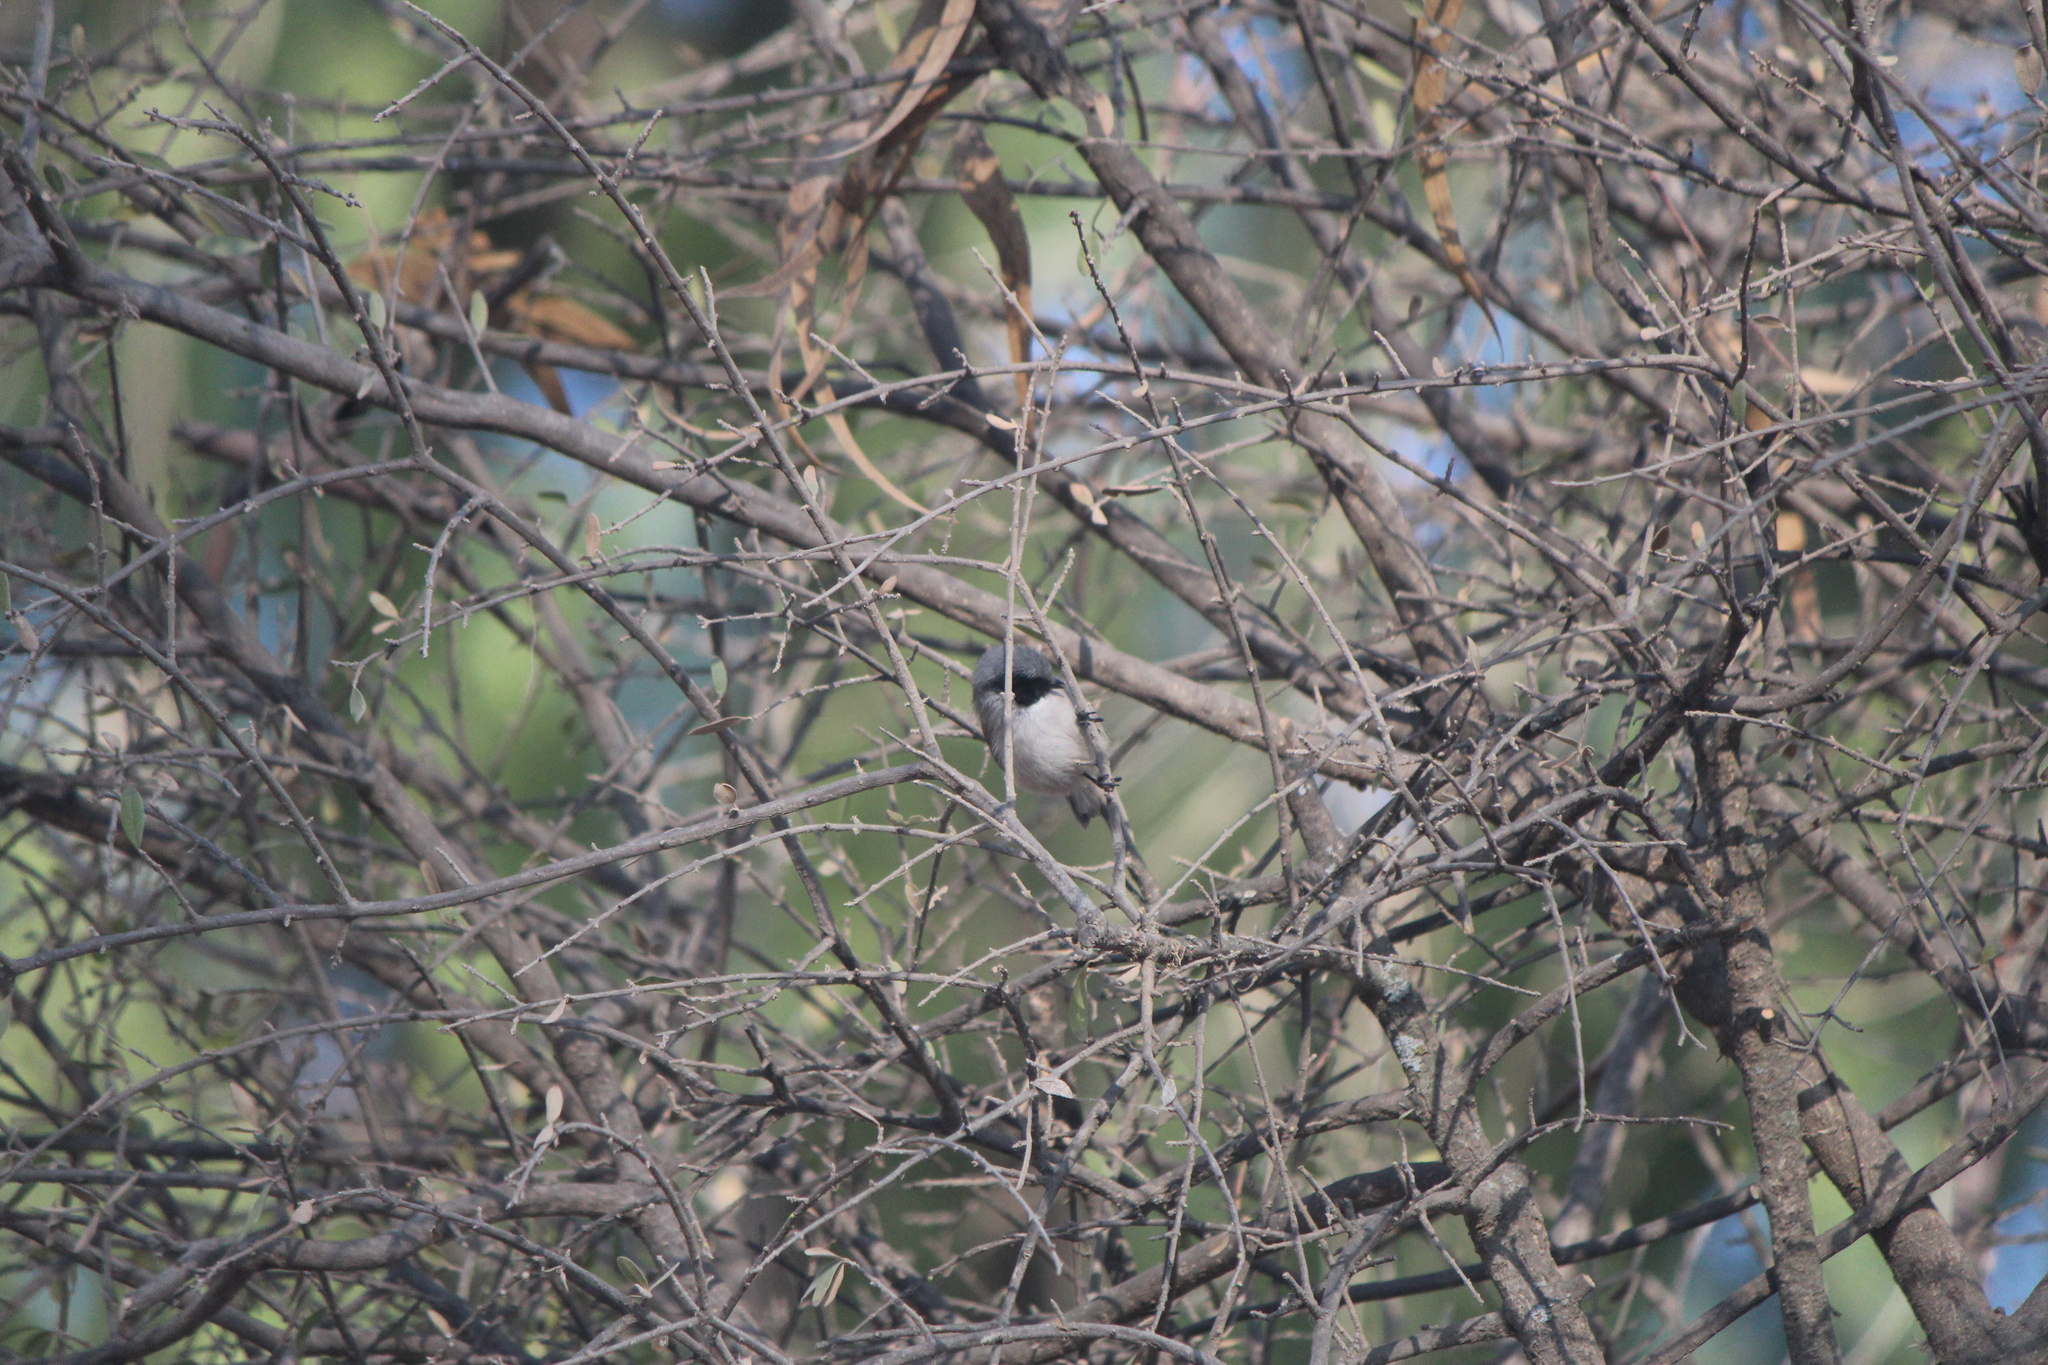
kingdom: Animalia
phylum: Chordata
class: Aves
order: Passeriformes
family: Aegithalidae
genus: Psaltriparus
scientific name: Psaltriparus minimus
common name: American bushtit
